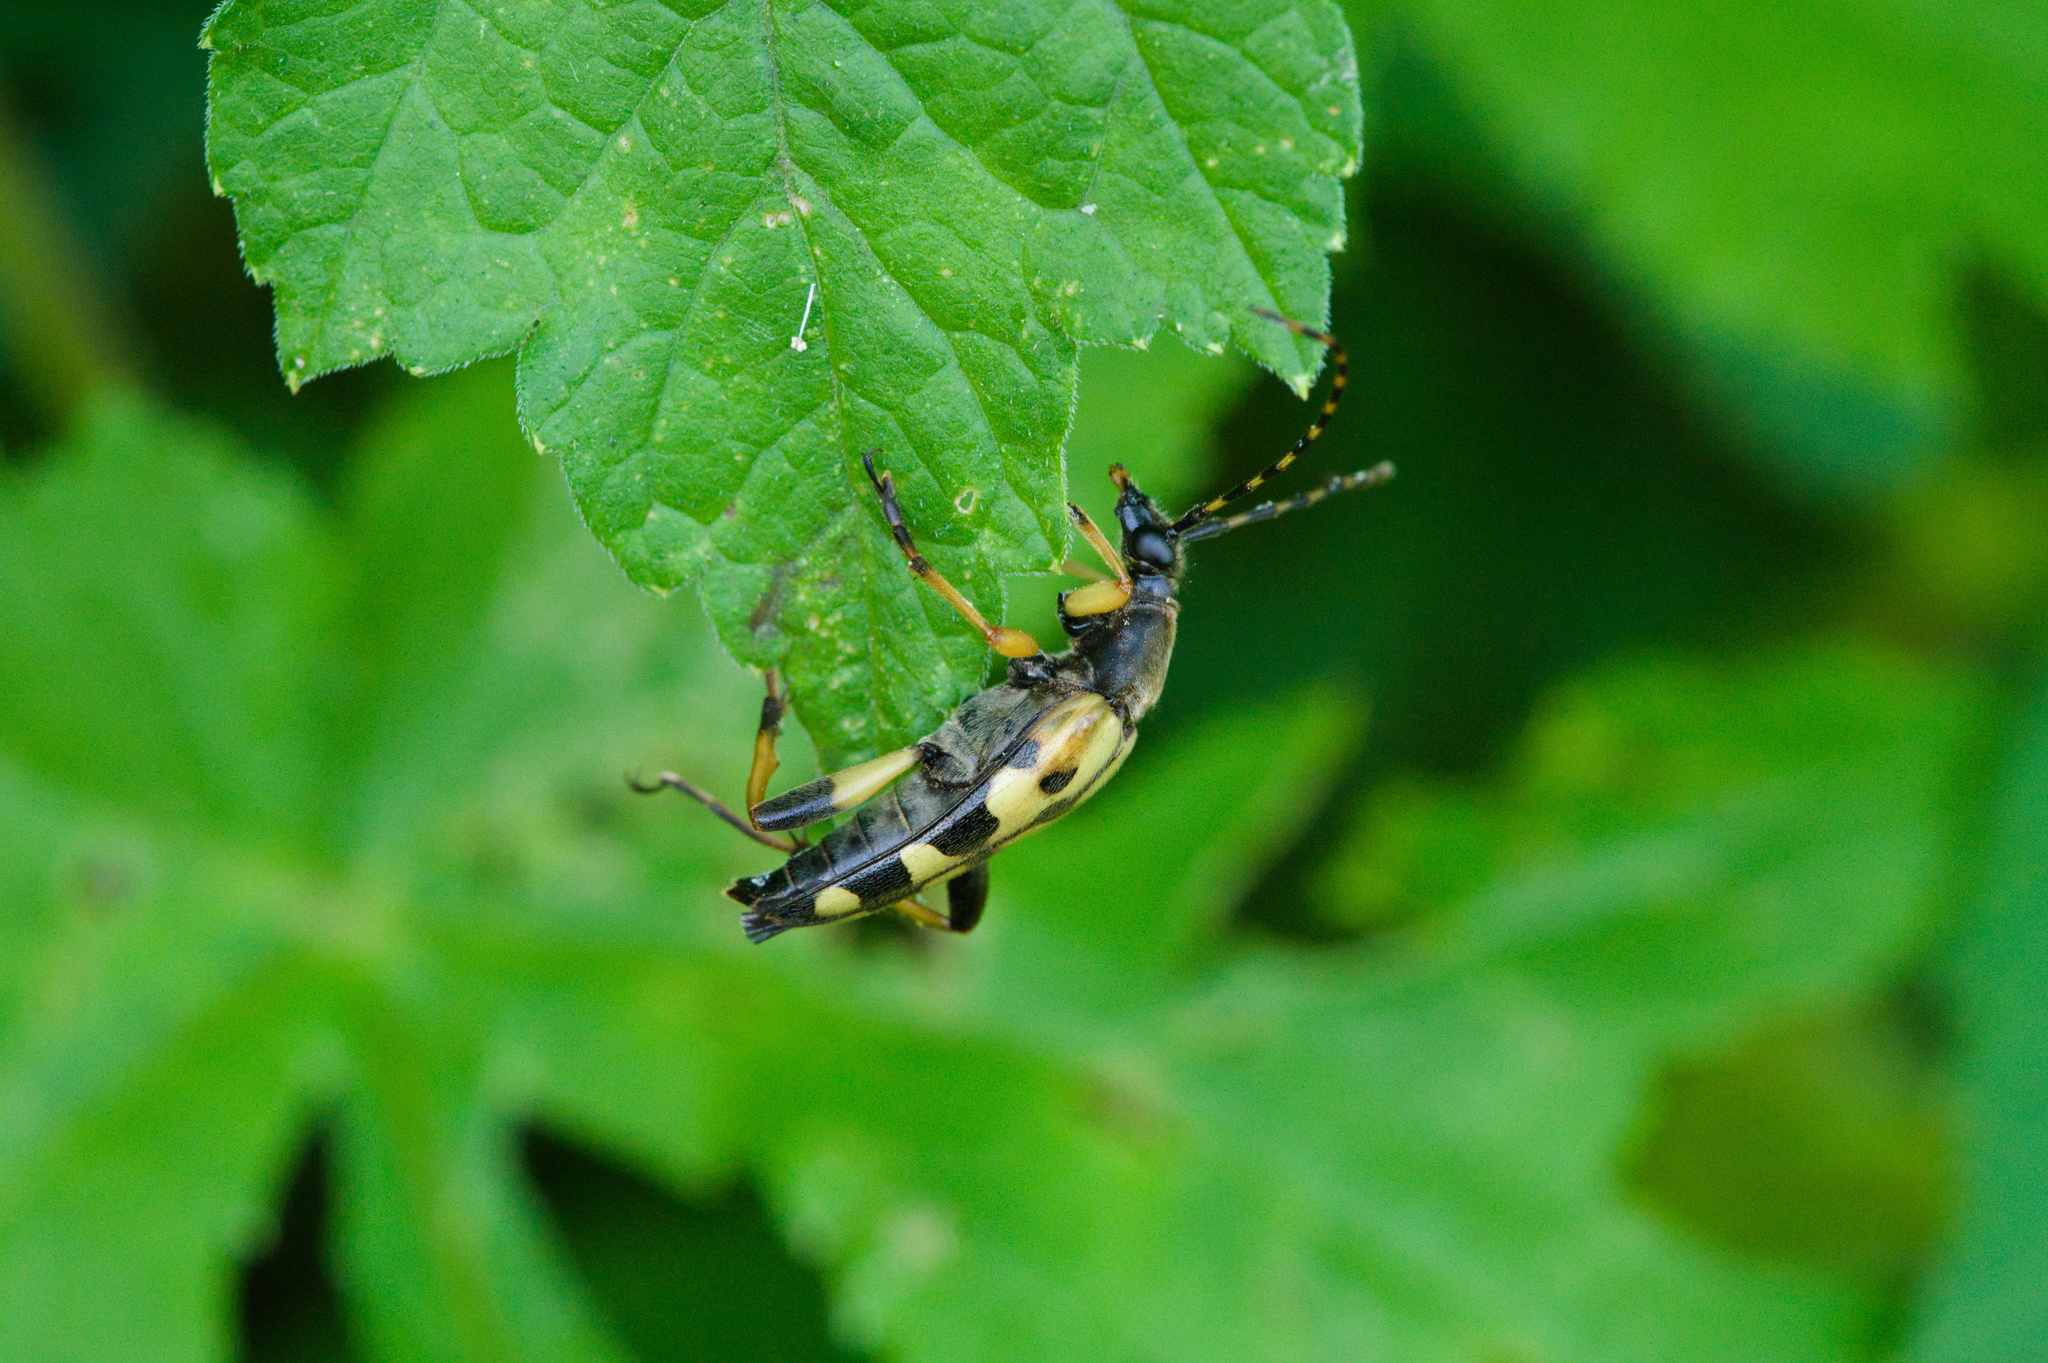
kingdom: Animalia
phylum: Arthropoda
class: Insecta
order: Coleoptera
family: Cerambycidae
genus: Rutpela
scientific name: Rutpela maculata
